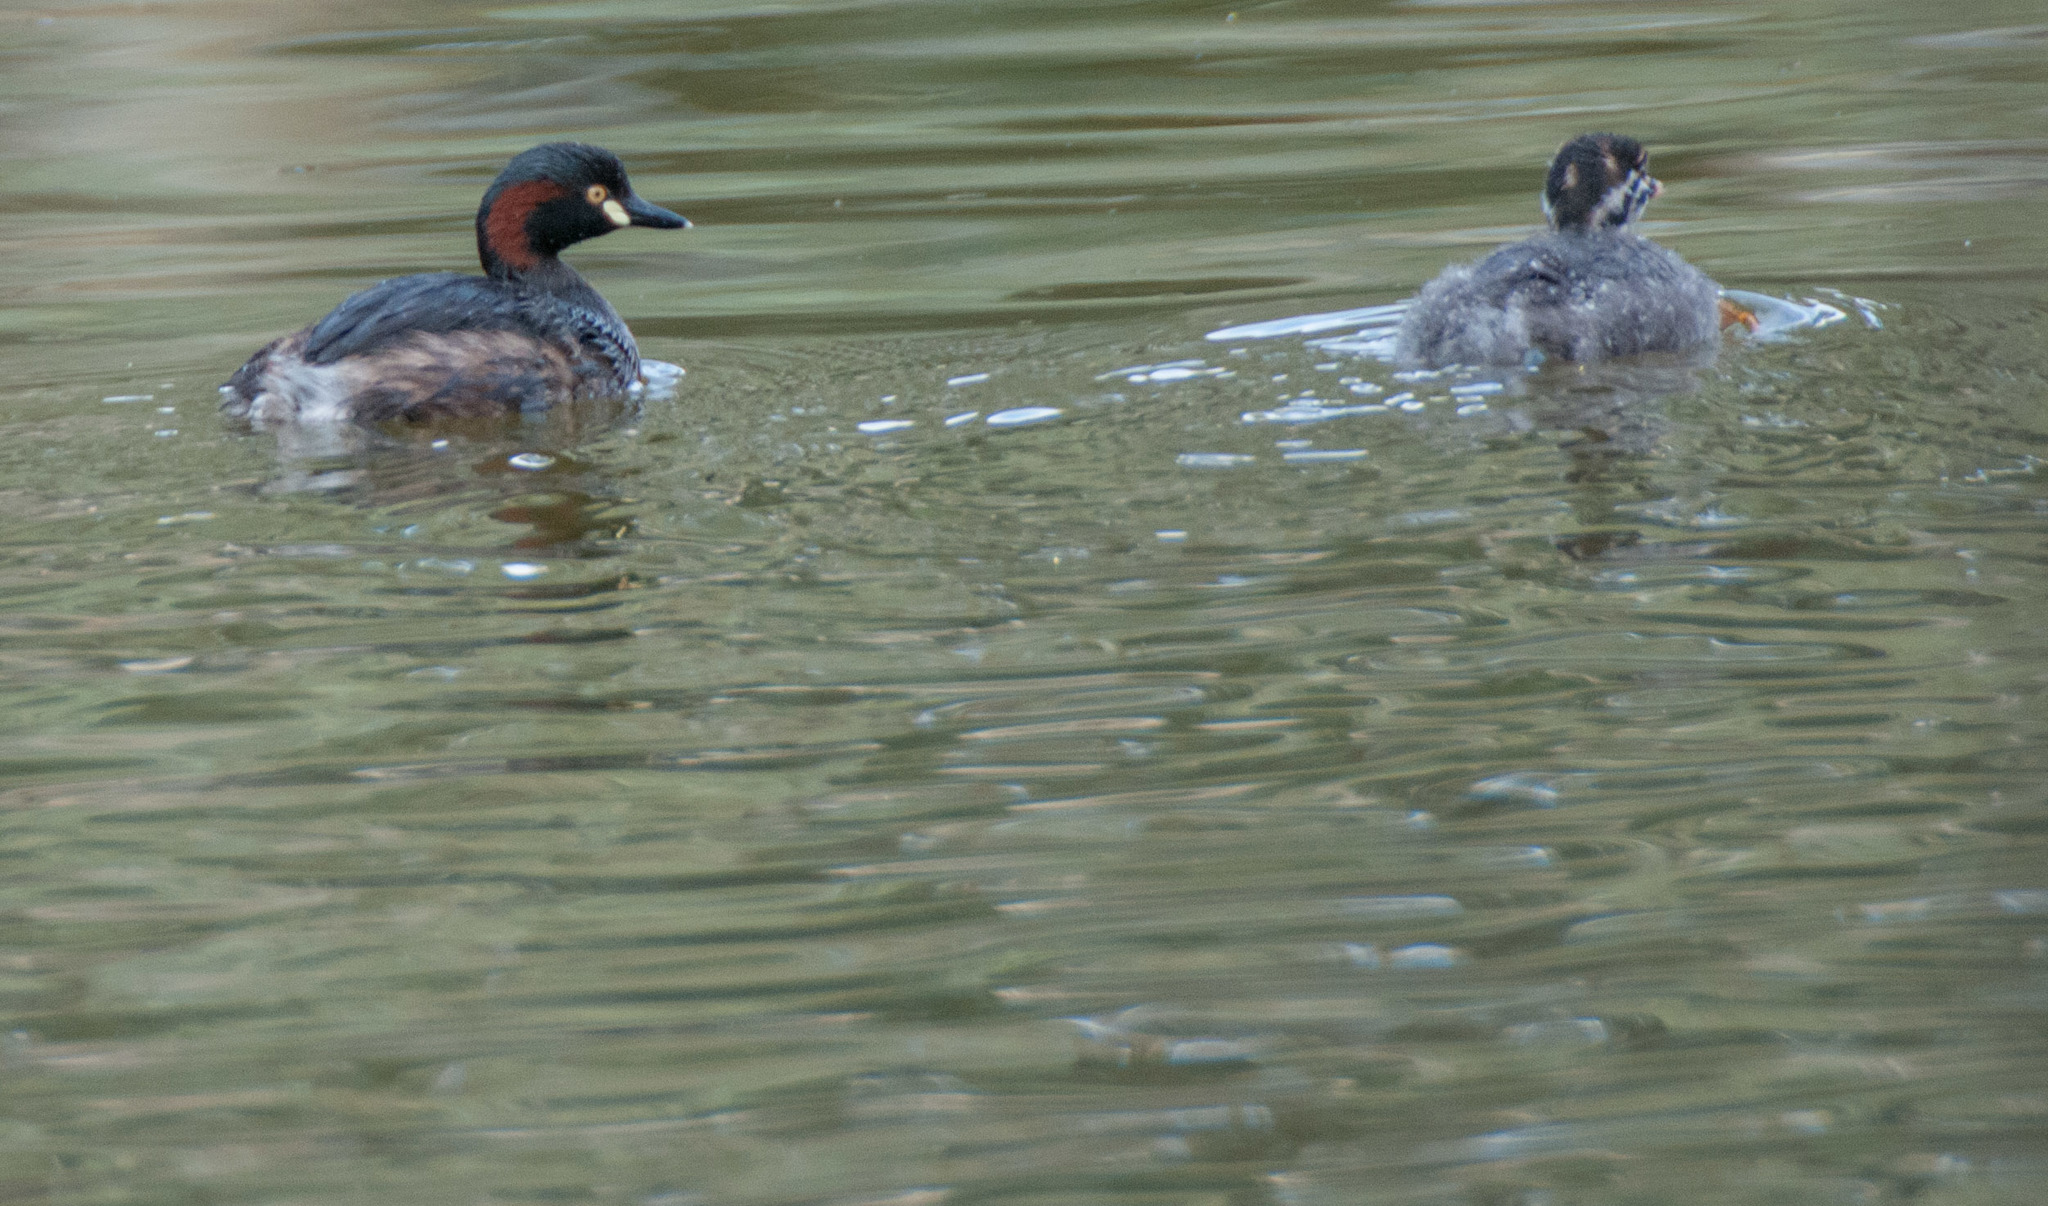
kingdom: Animalia
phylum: Chordata
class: Aves
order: Podicipediformes
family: Podicipedidae
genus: Tachybaptus
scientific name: Tachybaptus novaehollandiae
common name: Australasian grebe
